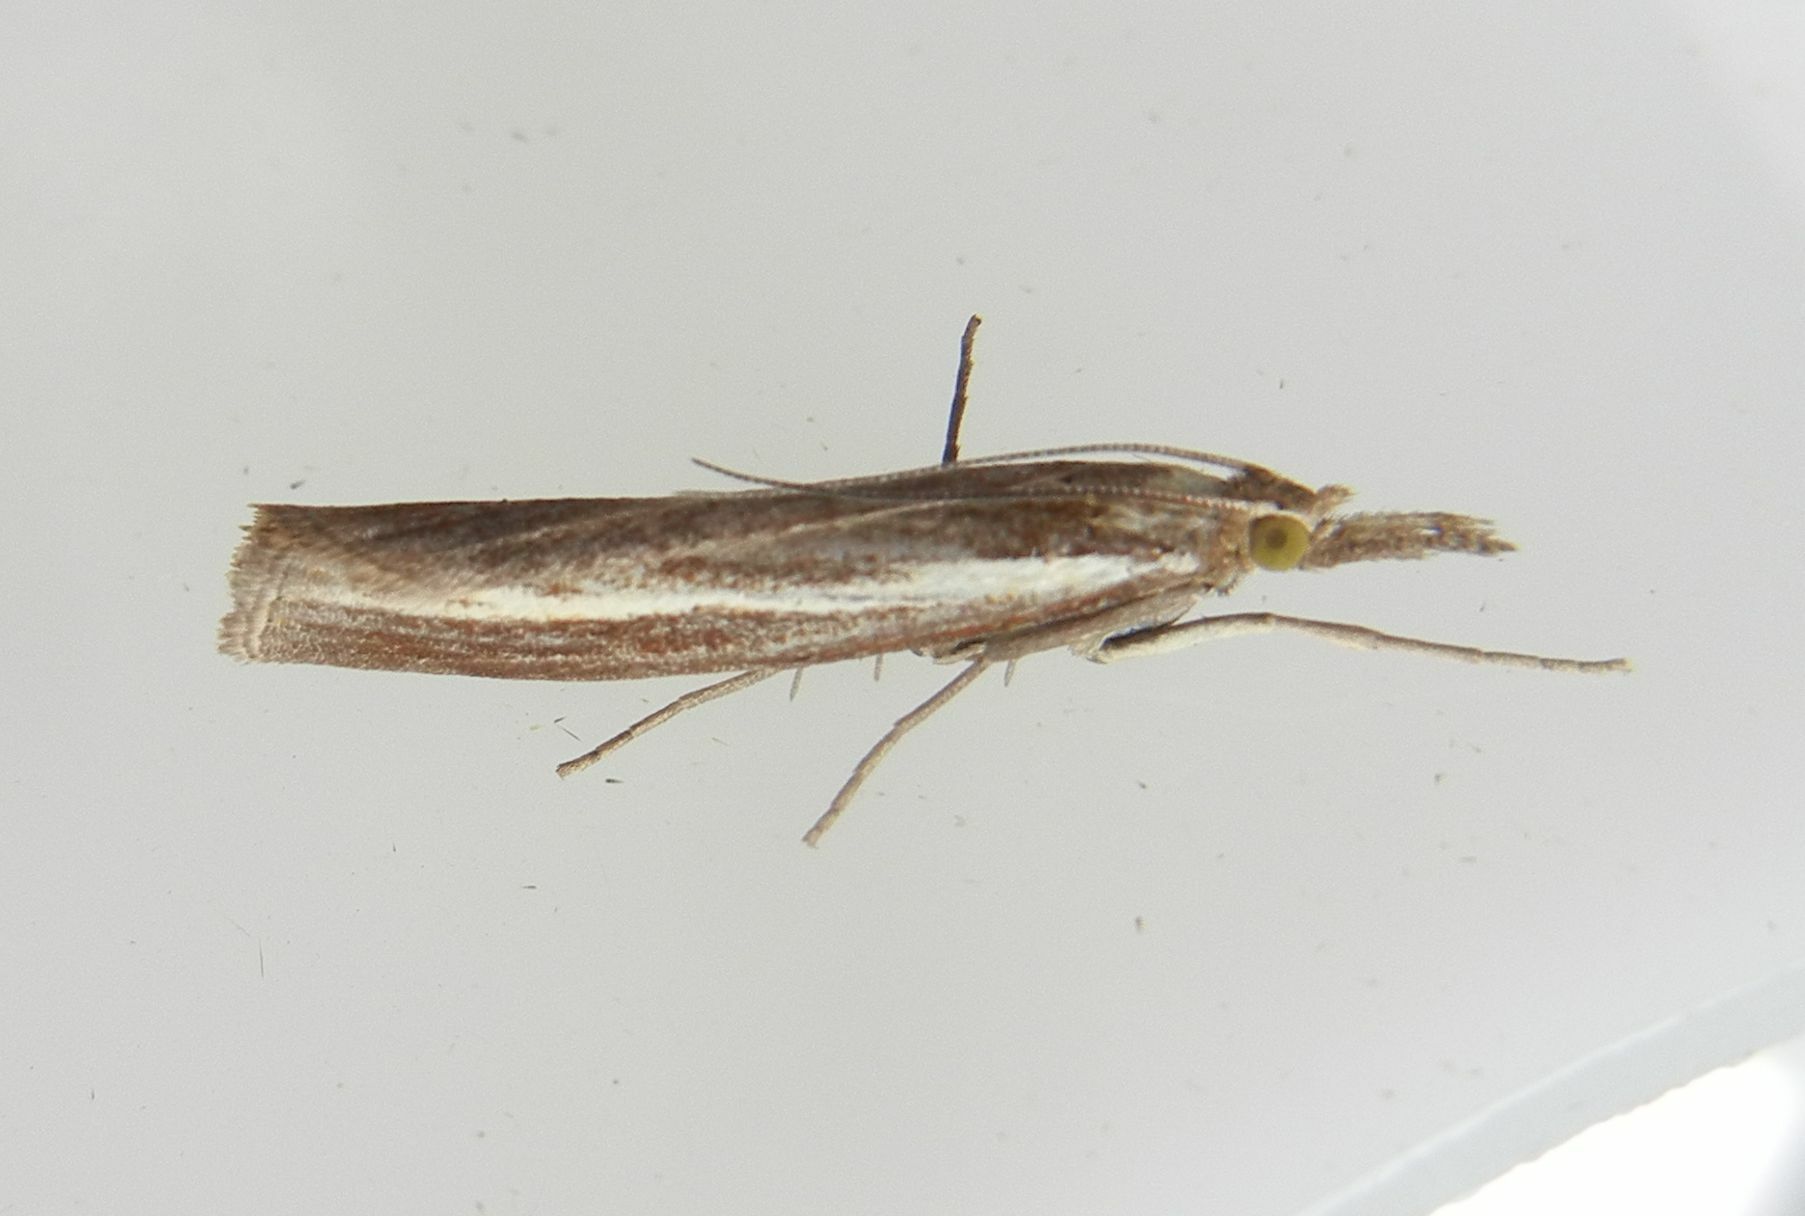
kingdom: Animalia
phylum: Arthropoda
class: Insecta
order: Lepidoptera
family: Crambidae
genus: Agriphila
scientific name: Agriphila tristellus
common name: Common grass-veneer
